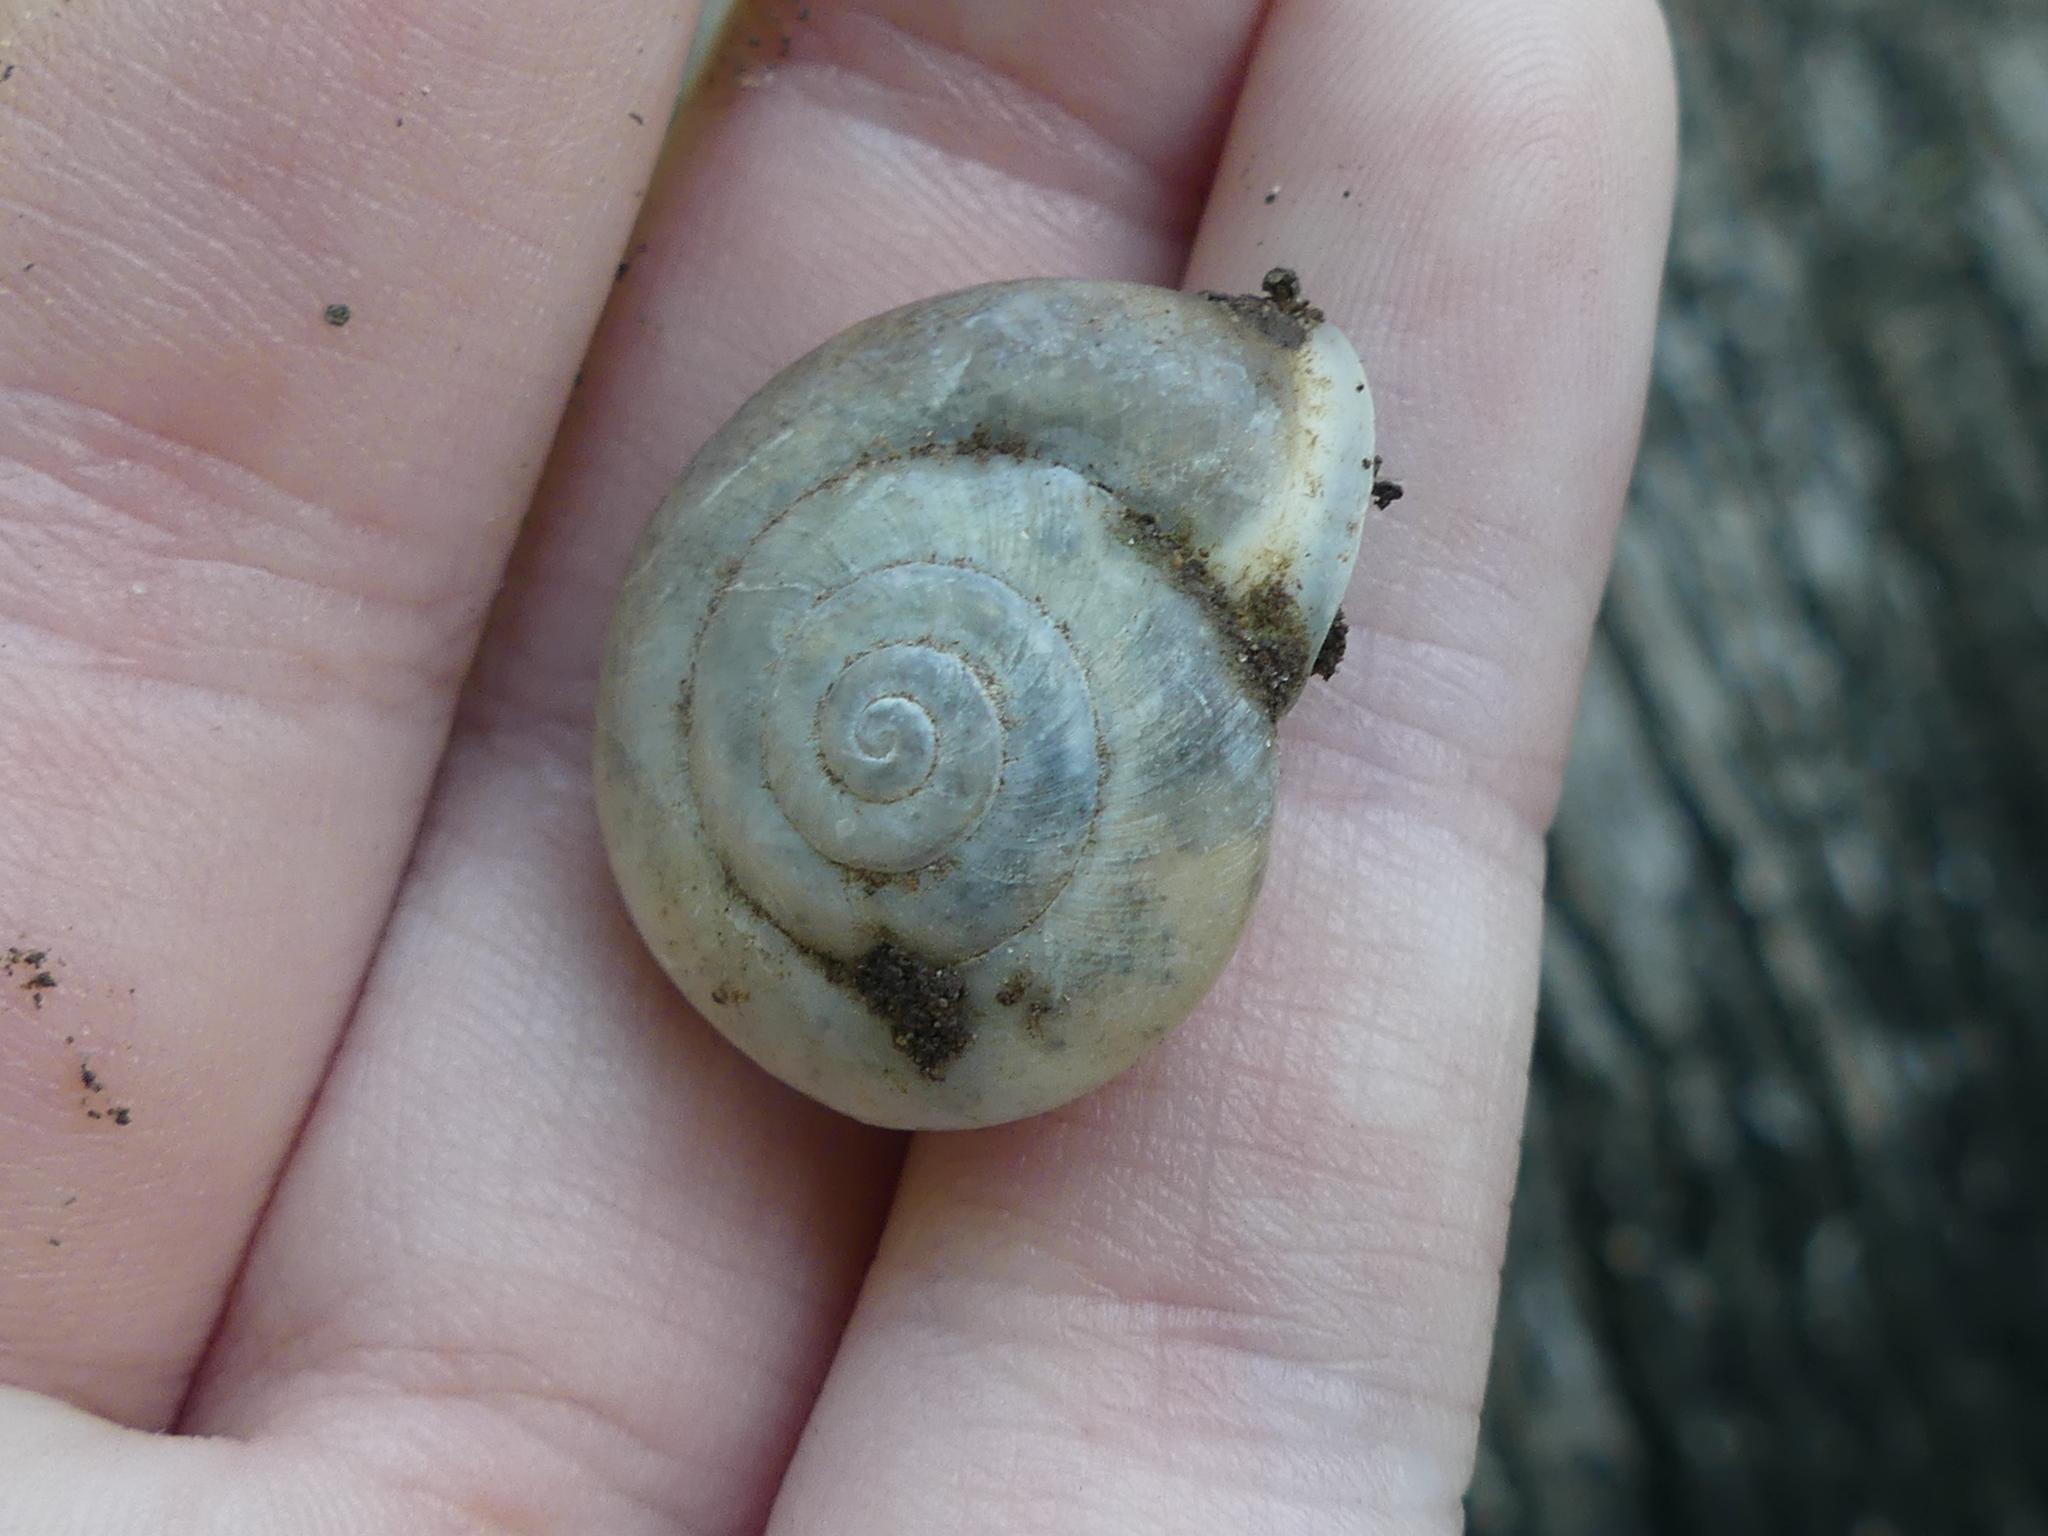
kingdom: Animalia
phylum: Mollusca
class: Gastropoda
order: Stylommatophora
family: Polygyridae
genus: Patera
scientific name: Patera roemeri
